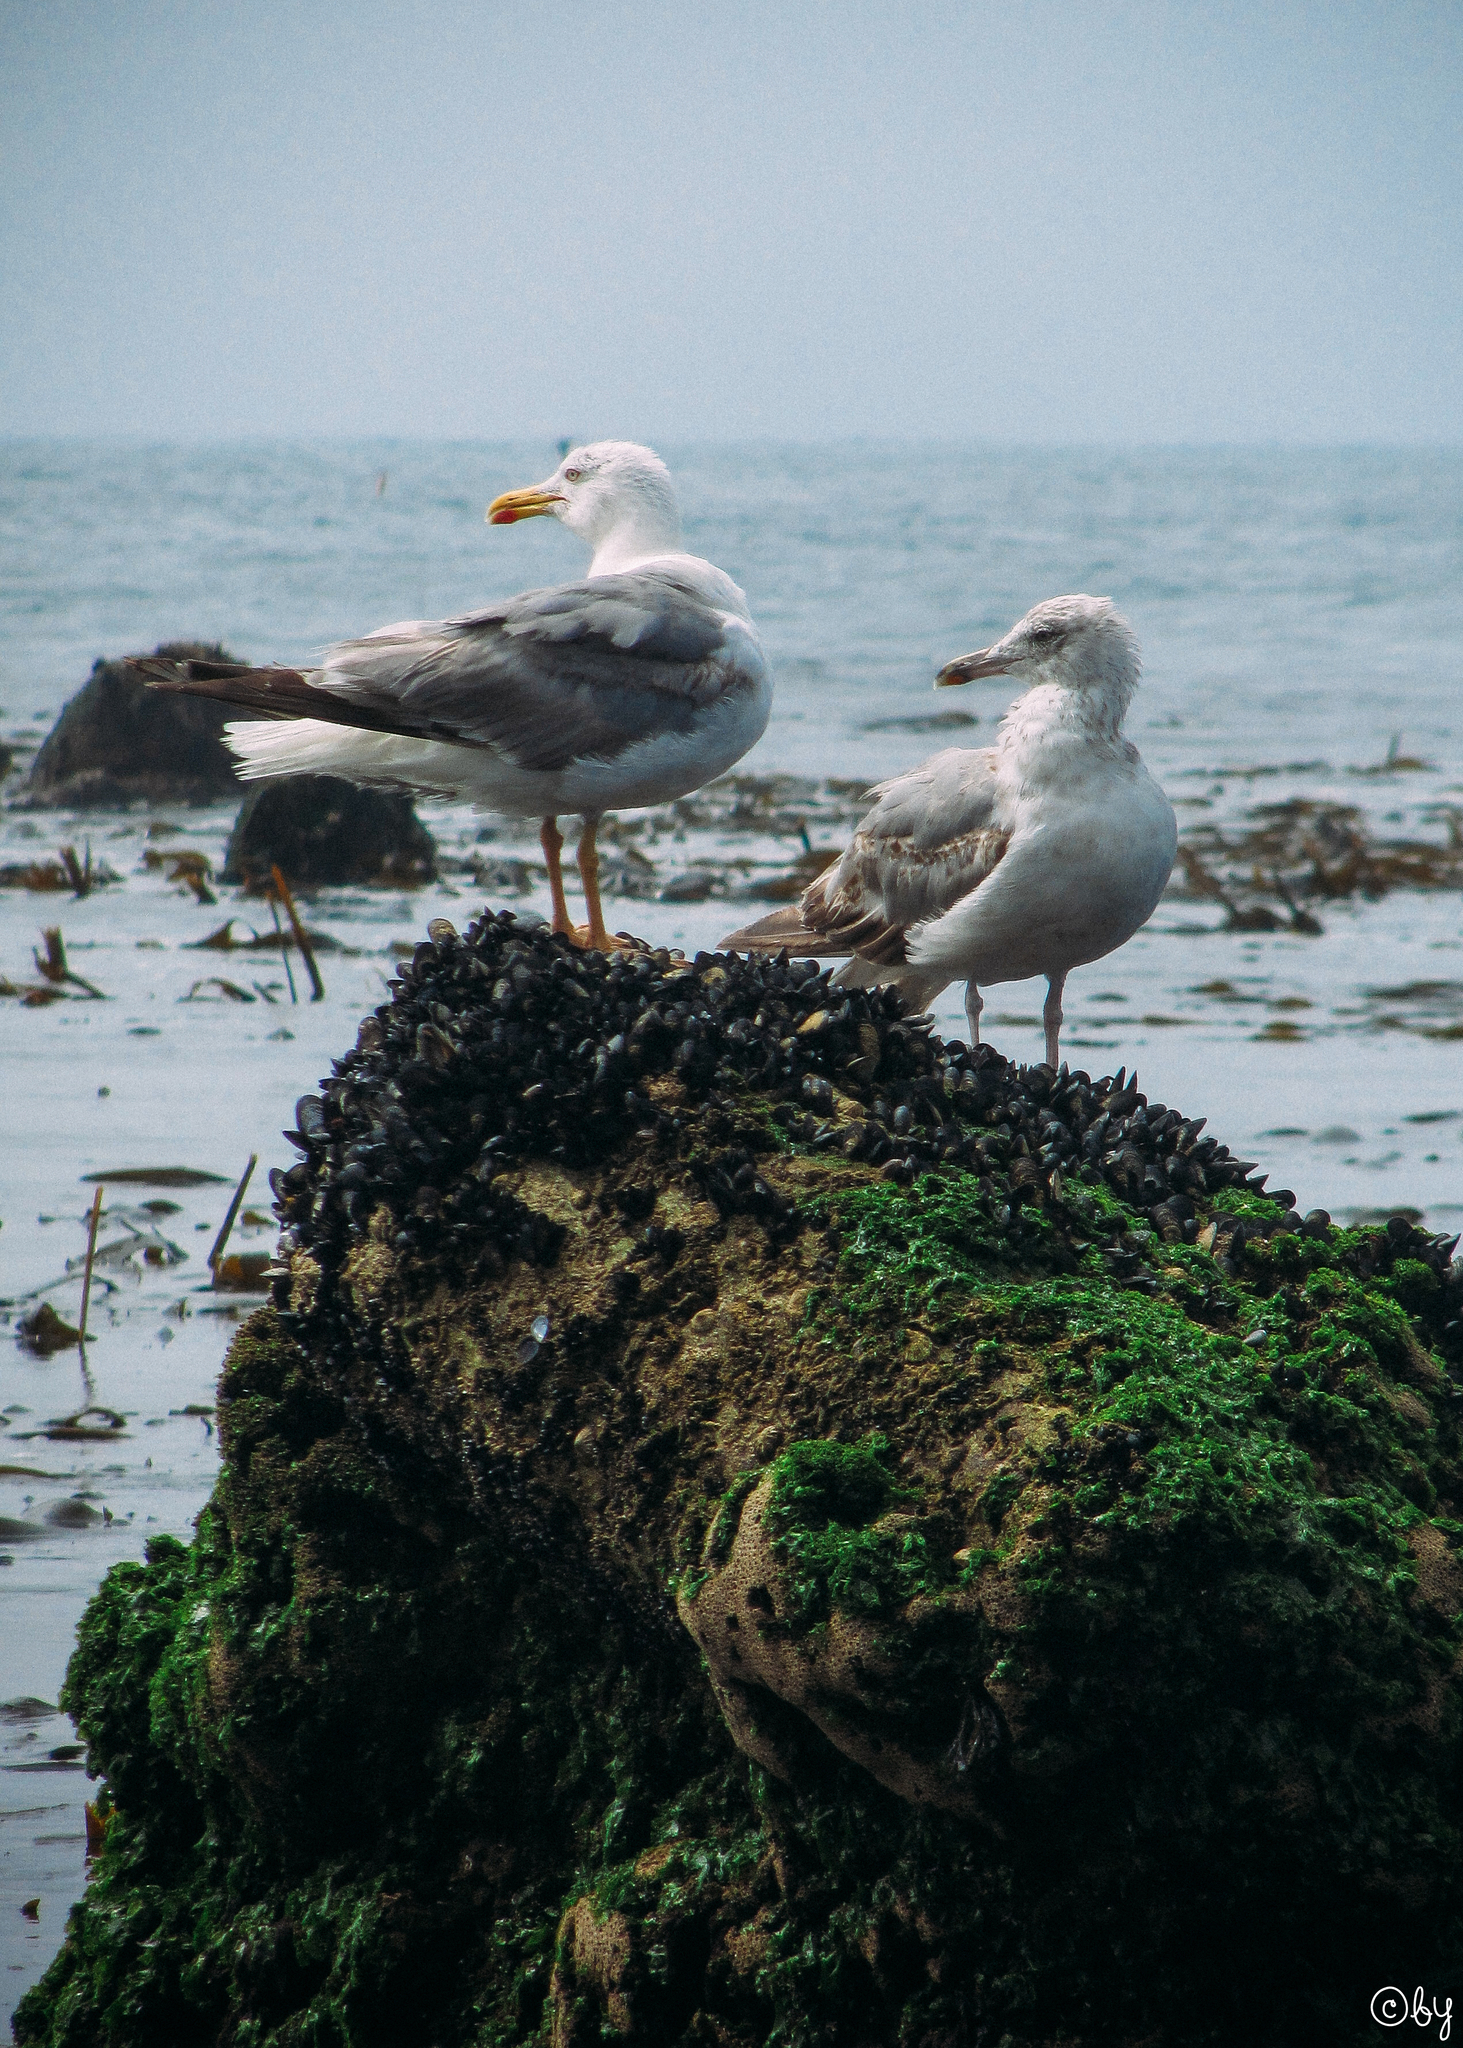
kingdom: Animalia
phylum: Chordata
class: Aves
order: Charadriiformes
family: Laridae
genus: Larus
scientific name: Larus michahellis
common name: Yellow-legged gull
